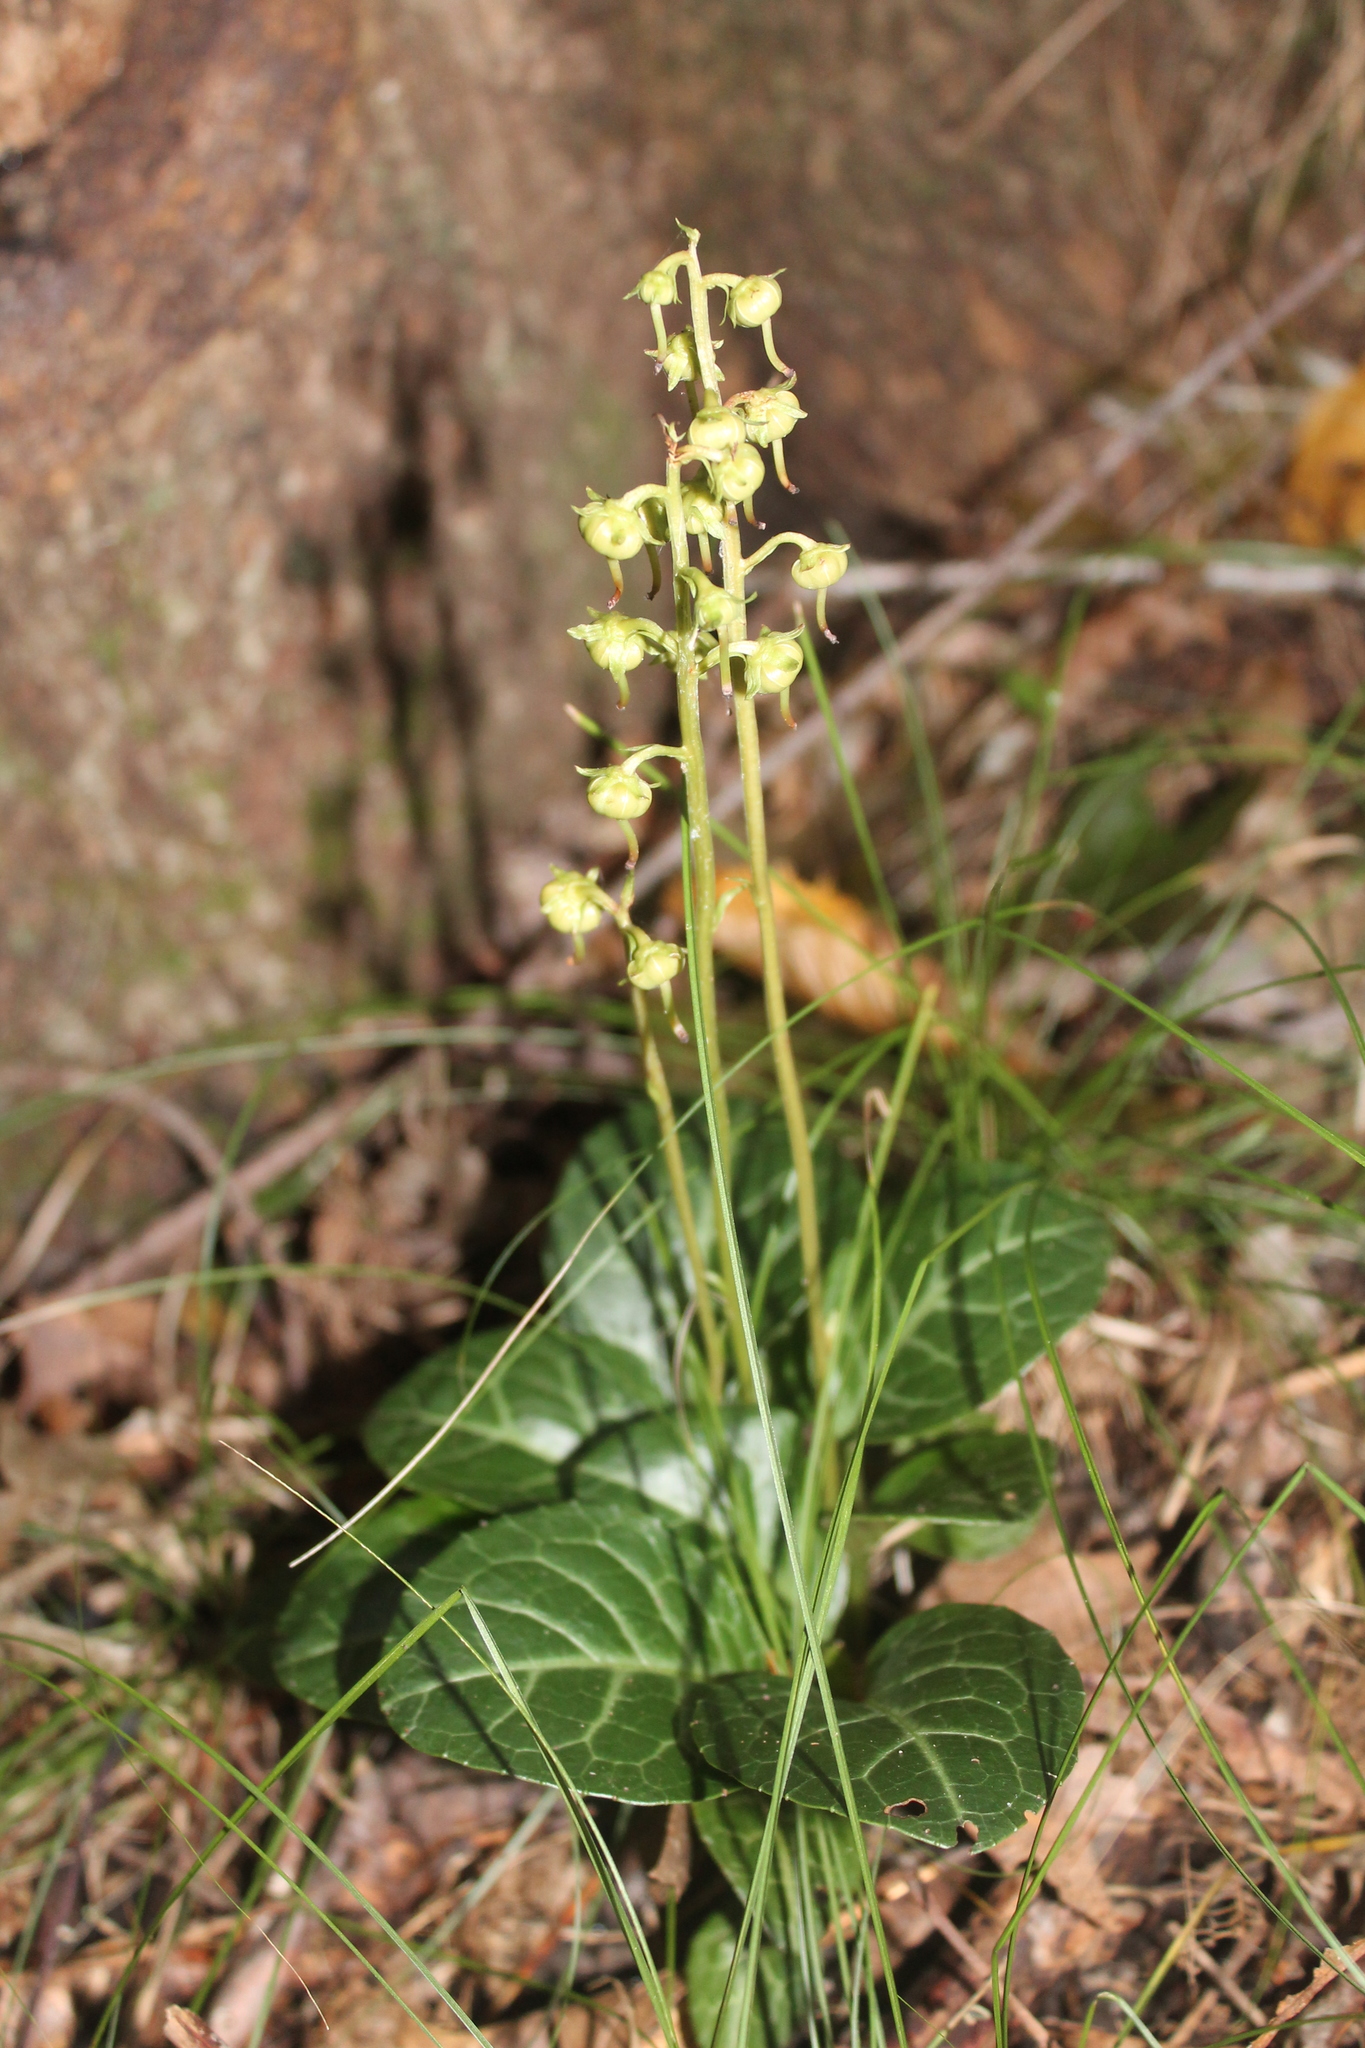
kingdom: Plantae
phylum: Tracheophyta
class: Magnoliopsida
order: Ericales
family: Ericaceae
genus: Pyrola
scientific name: Pyrola americana
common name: American wintergreen
